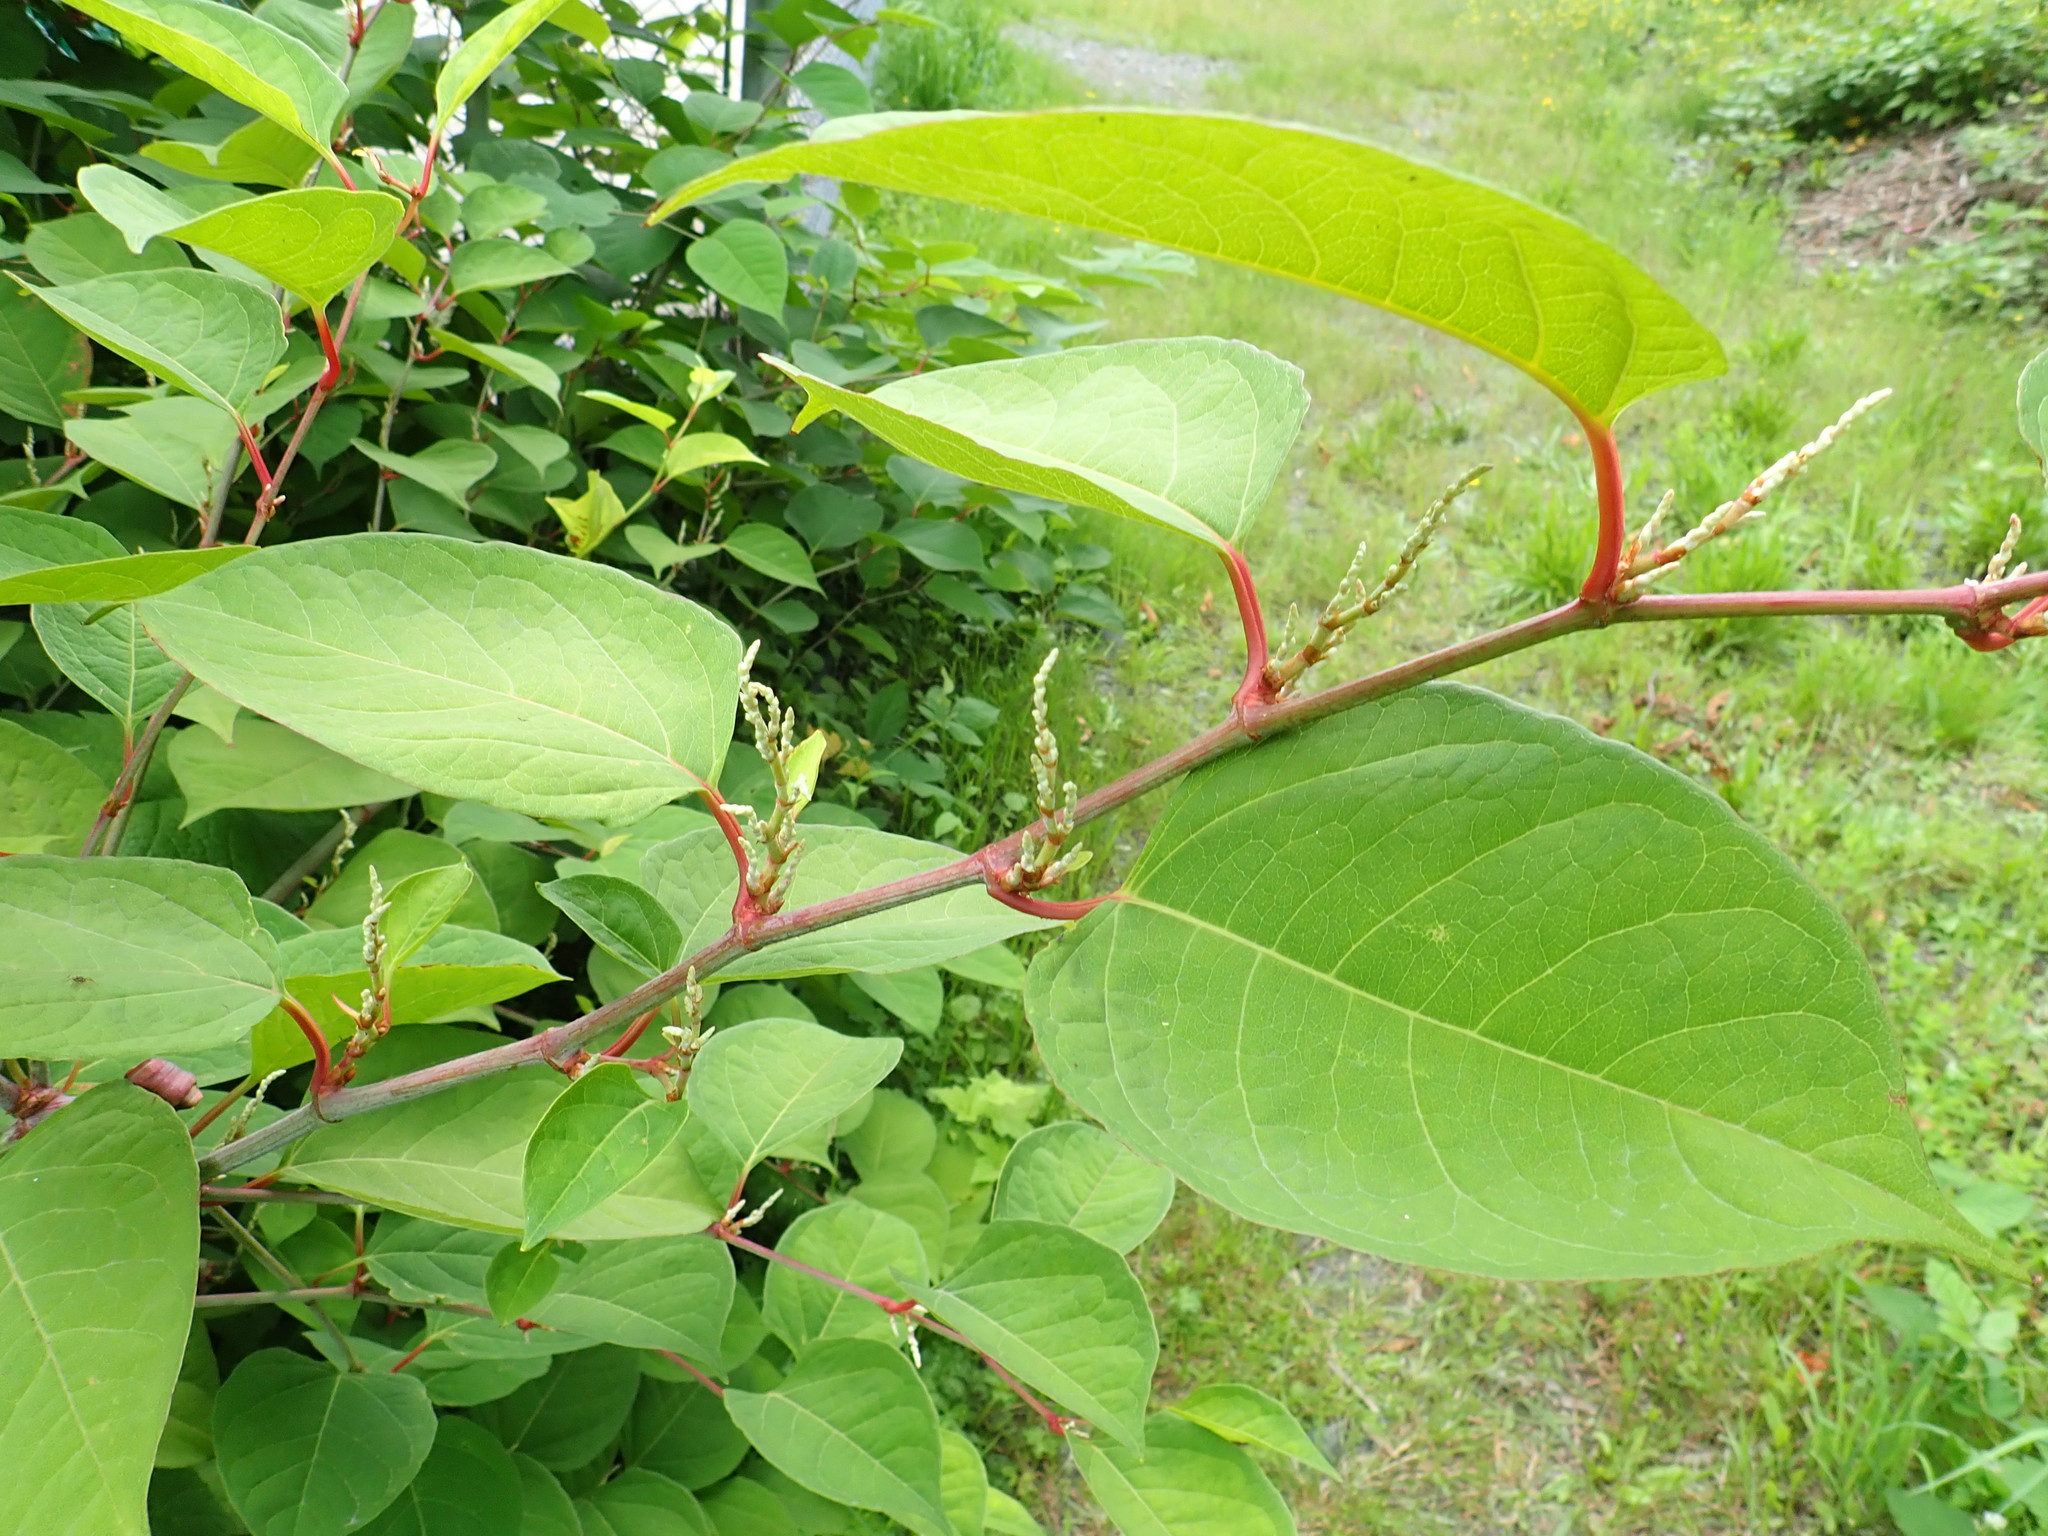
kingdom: Plantae
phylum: Tracheophyta
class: Magnoliopsida
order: Caryophyllales
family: Polygonaceae
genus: Reynoutria
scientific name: Reynoutria japonica
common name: Japanese knotweed
